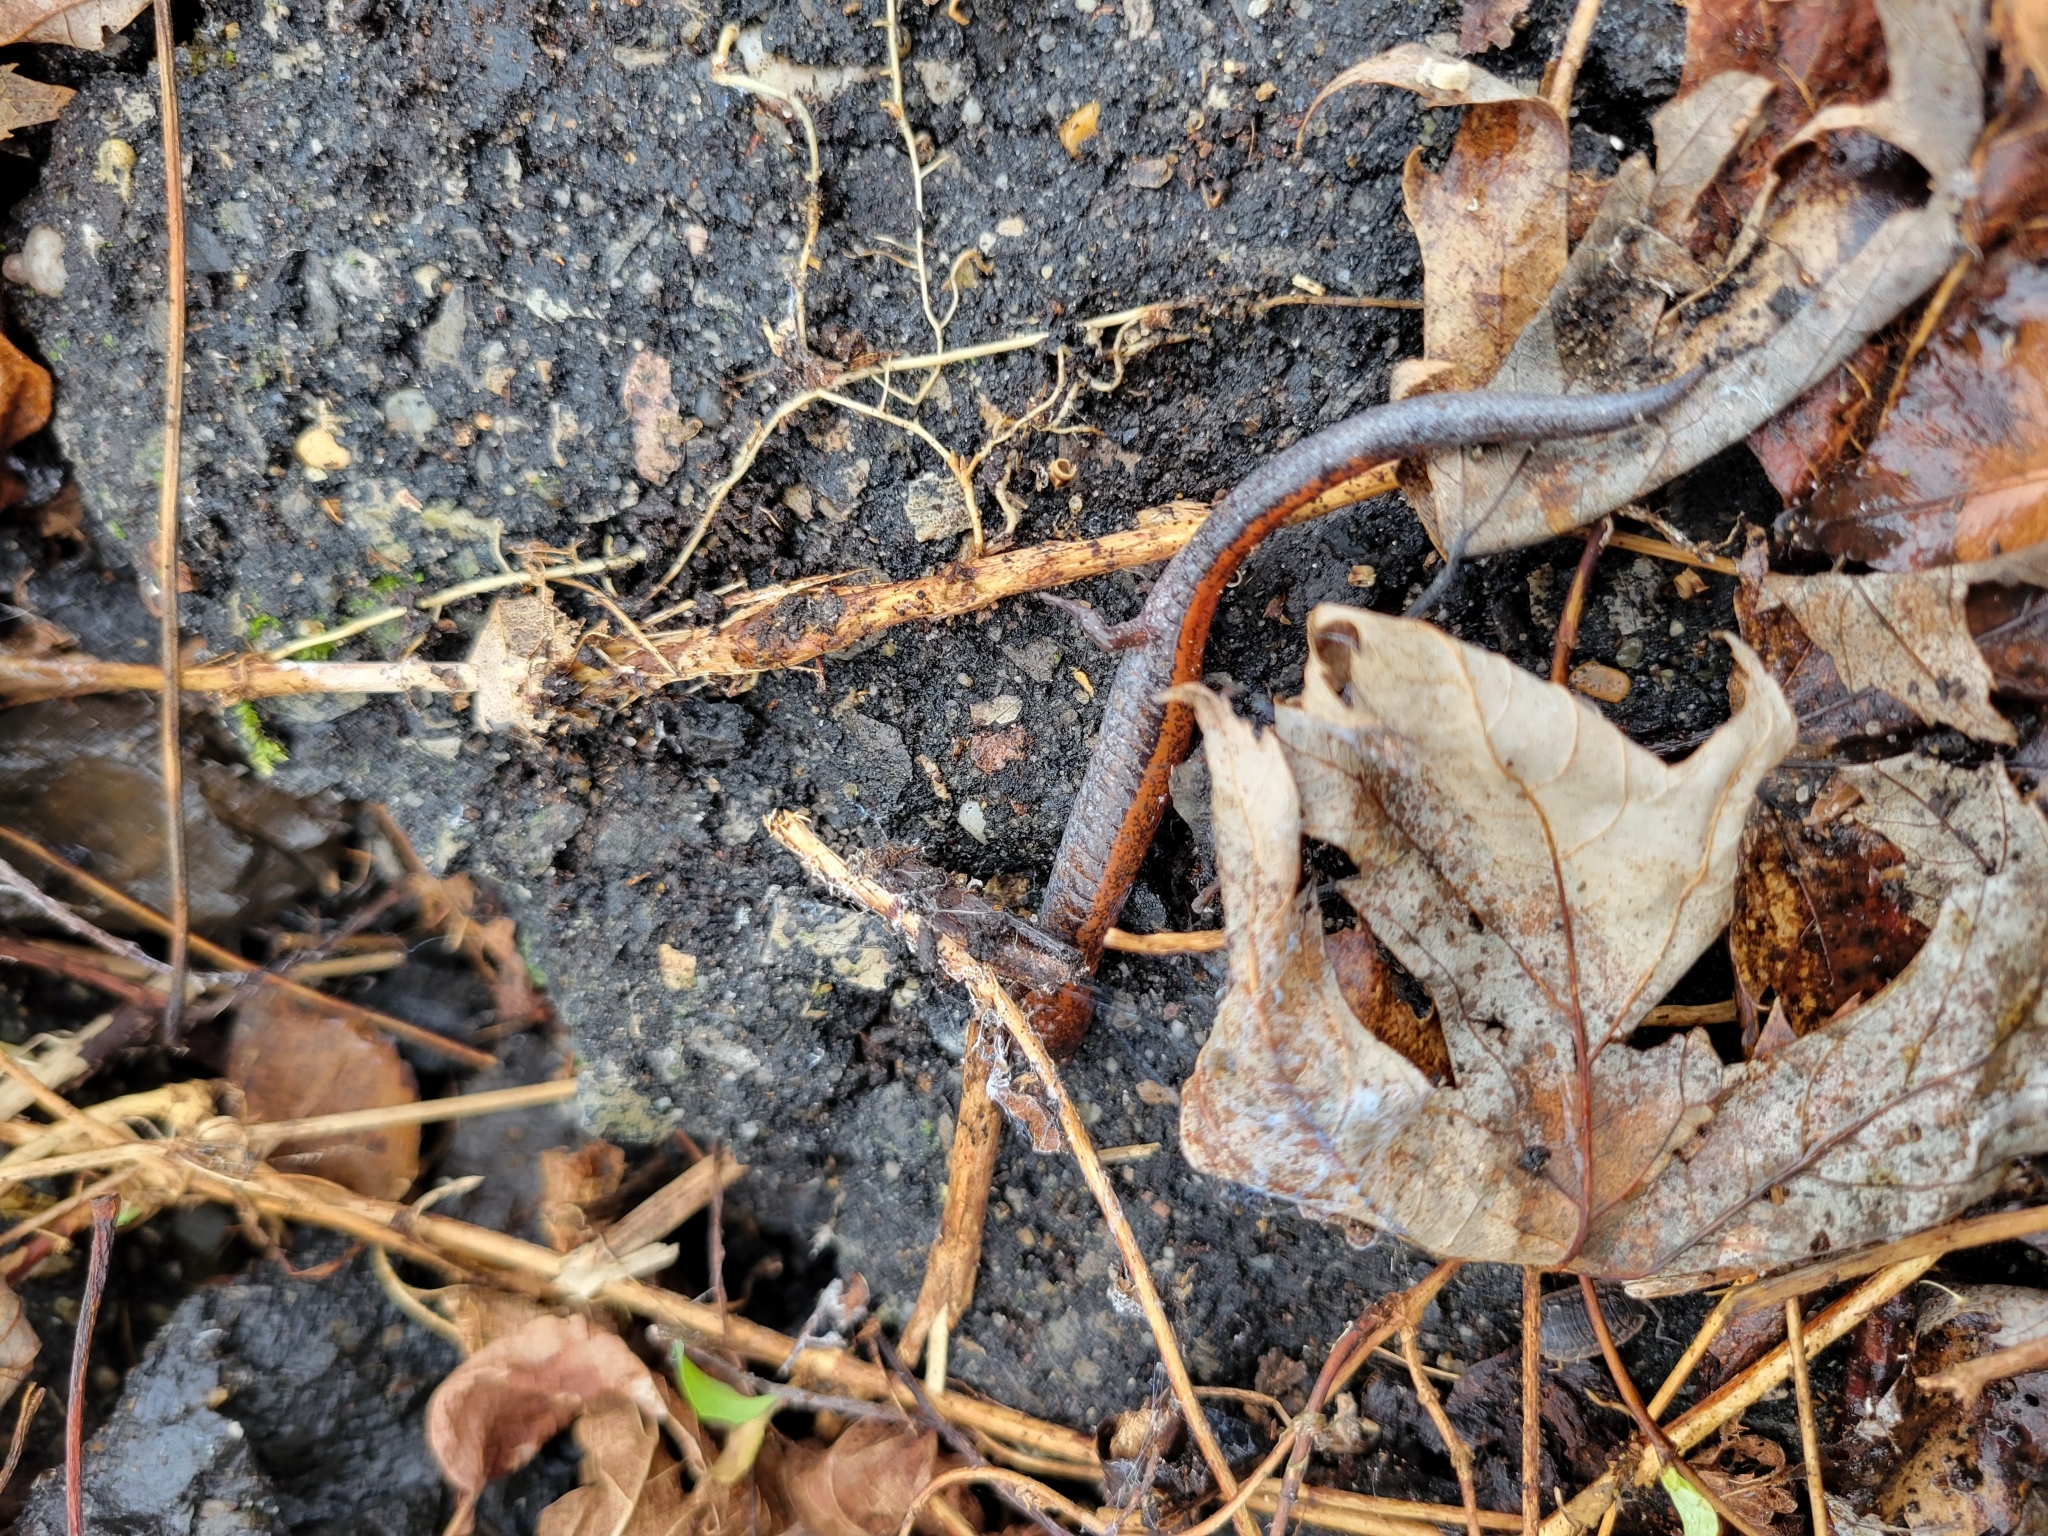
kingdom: Animalia
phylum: Chordata
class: Amphibia
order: Caudata
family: Plethodontidae
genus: Plethodon
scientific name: Plethodon cinereus
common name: Redback salamander
